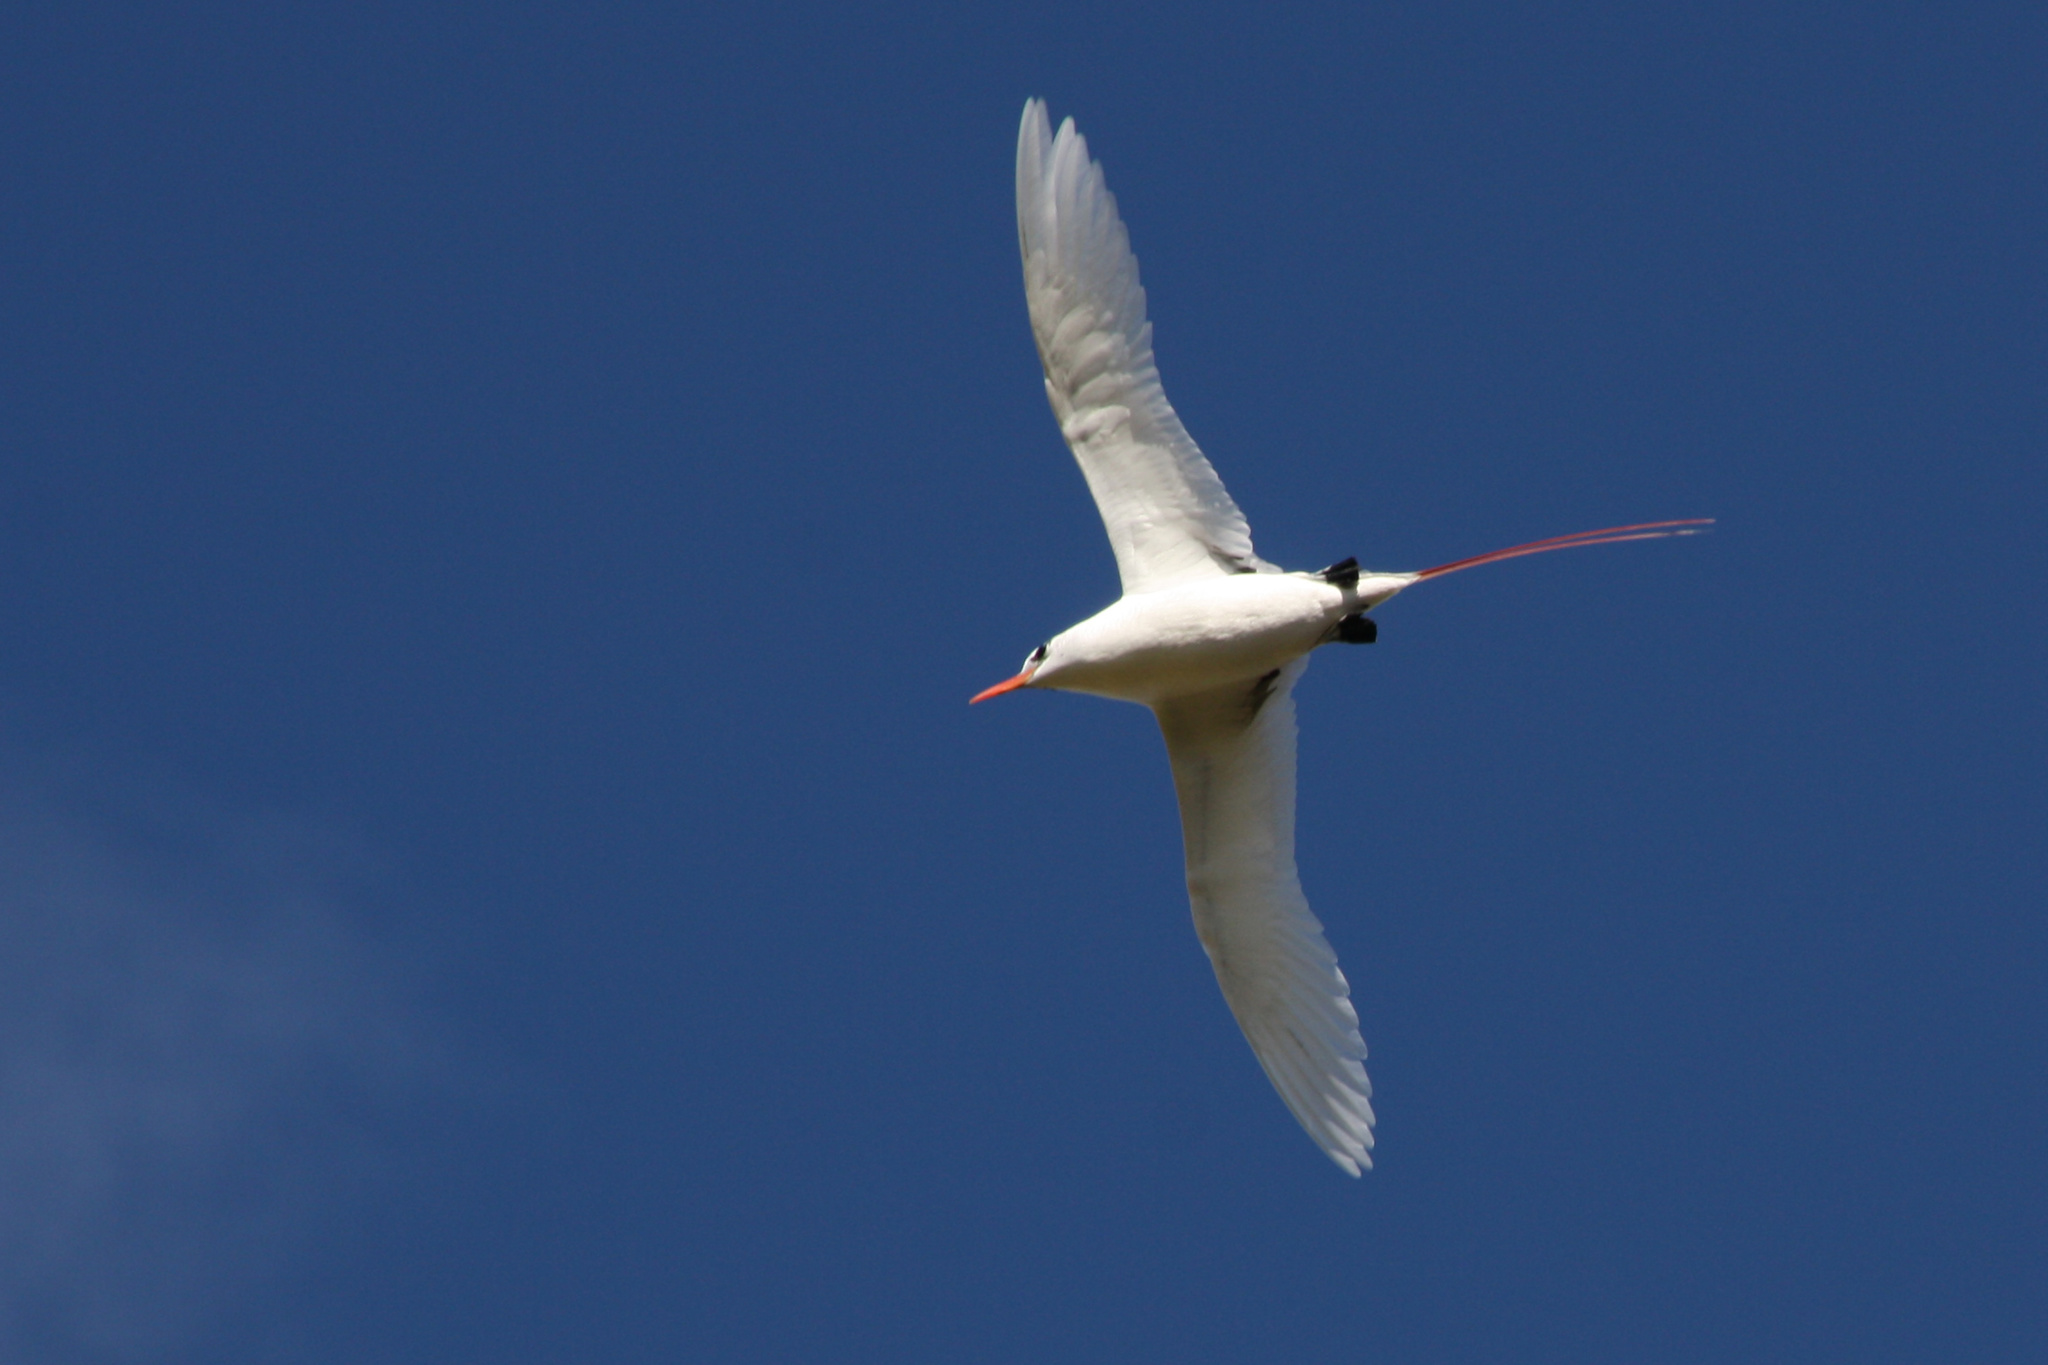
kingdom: Animalia
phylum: Chordata
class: Aves
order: Phaethontiformes
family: Phaethontidae
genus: Phaethon
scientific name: Phaethon rubricauda
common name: Red-tailed tropicbird
